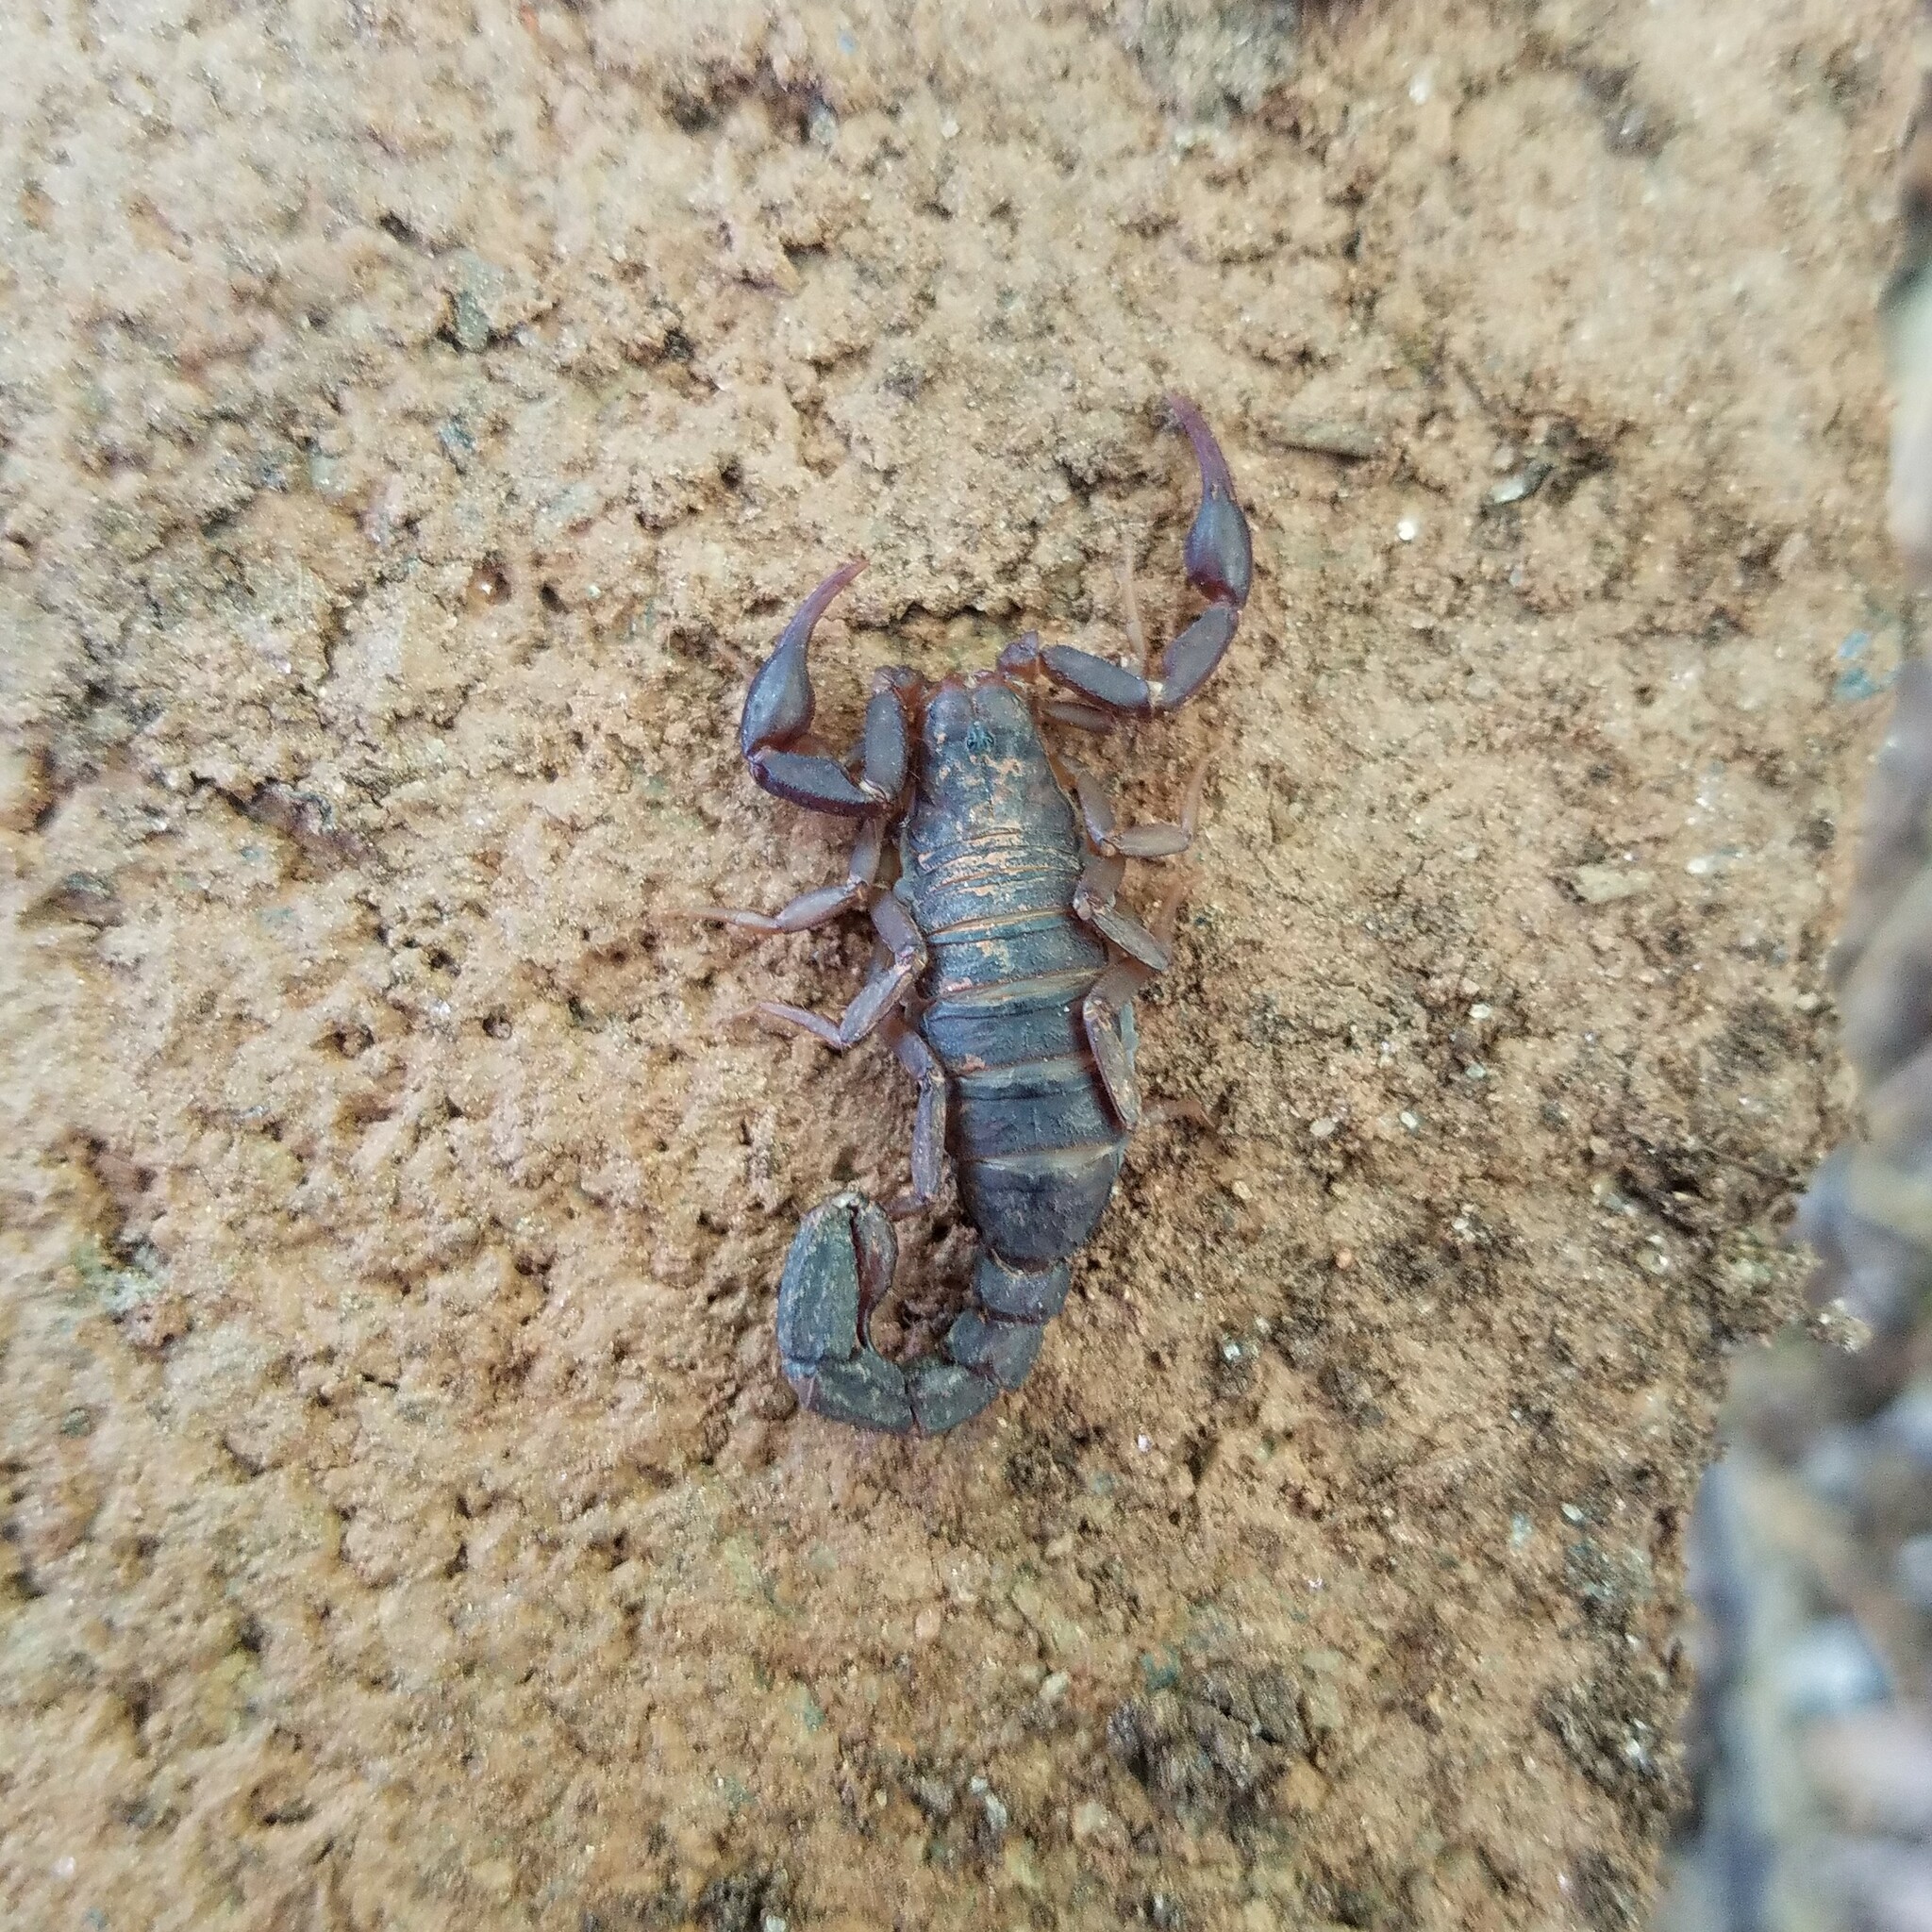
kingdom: Animalia
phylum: Arthropoda
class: Arachnida
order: Scorpiones
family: Vaejovidae
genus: Vaejovis
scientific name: Vaejovis carolinianus
